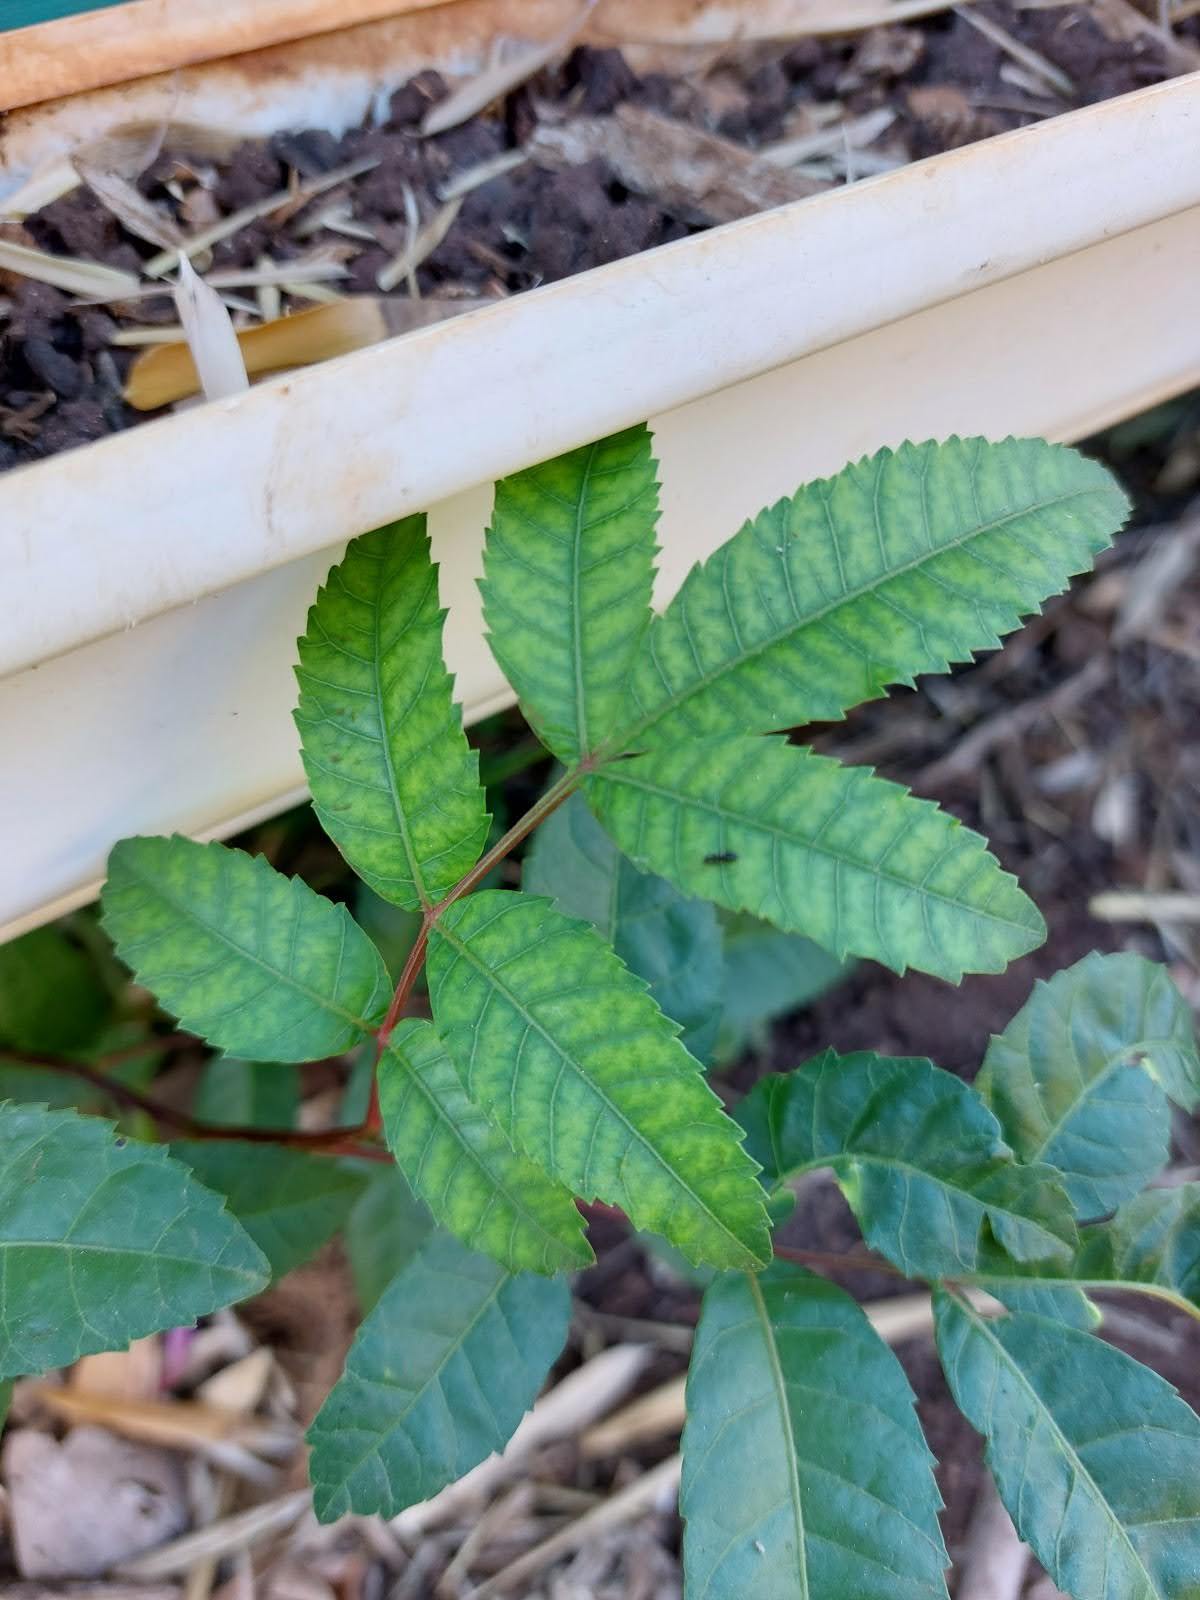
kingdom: Plantae
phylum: Tracheophyta
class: Magnoliopsida
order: Sapindales
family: Anacardiaceae
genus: Schinus
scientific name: Schinus terebinthifolia
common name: Brazilian peppertree
